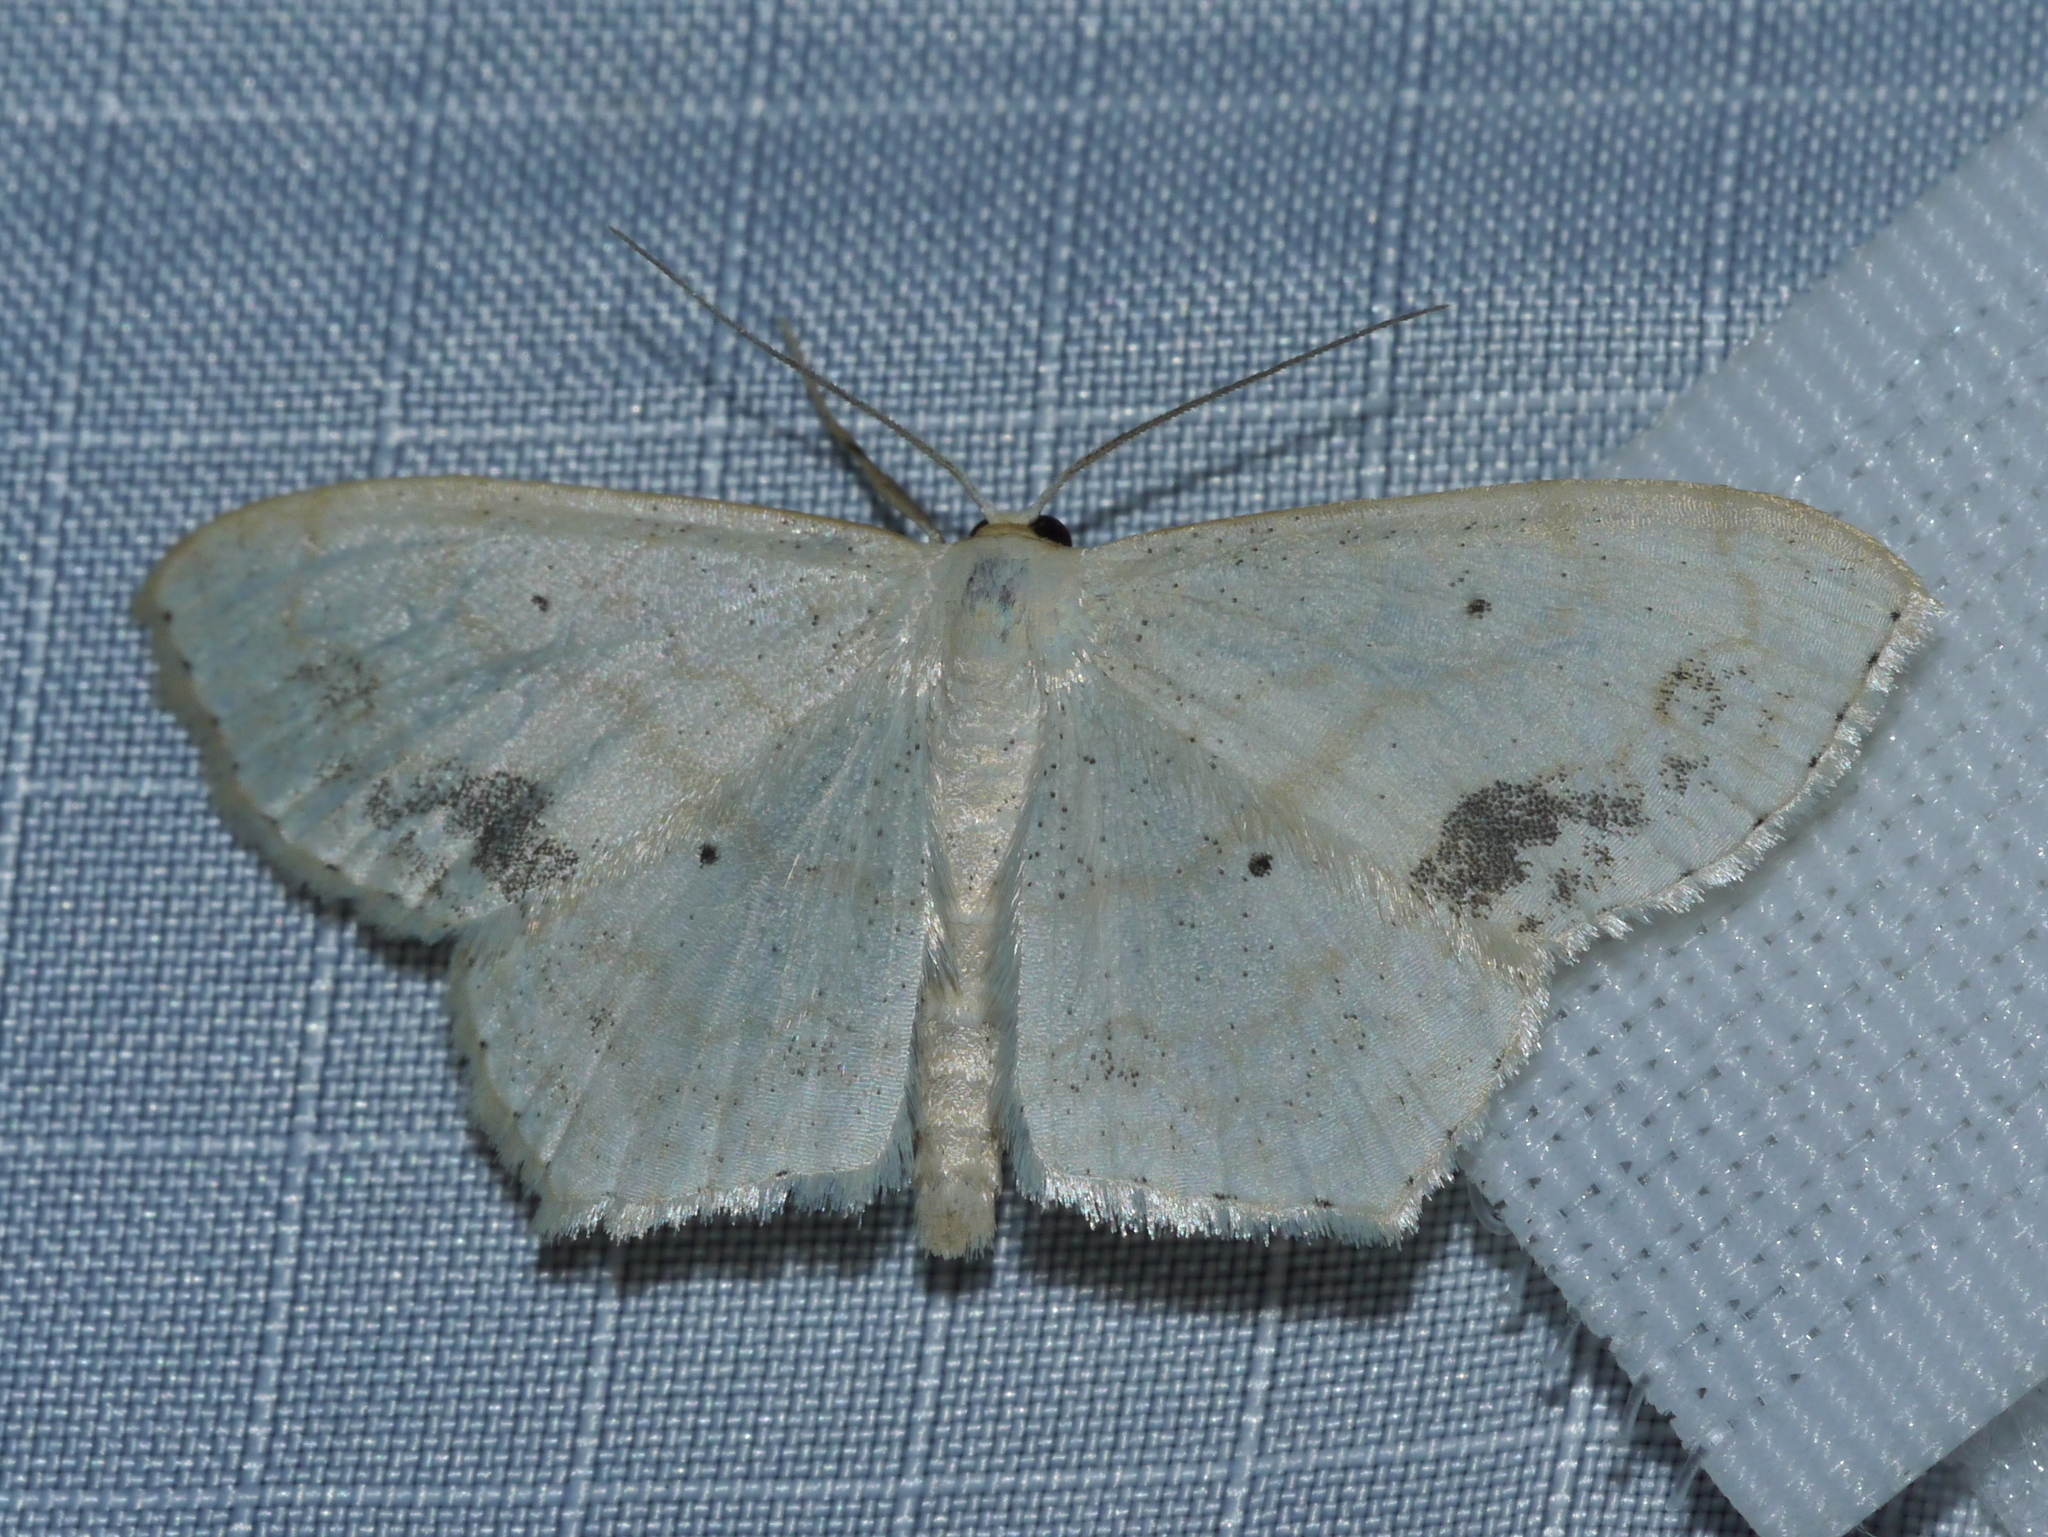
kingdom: Animalia
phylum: Arthropoda
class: Insecta
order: Lepidoptera
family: Geometridae
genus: Scopula
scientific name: Scopula limboundata
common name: Large lace border
